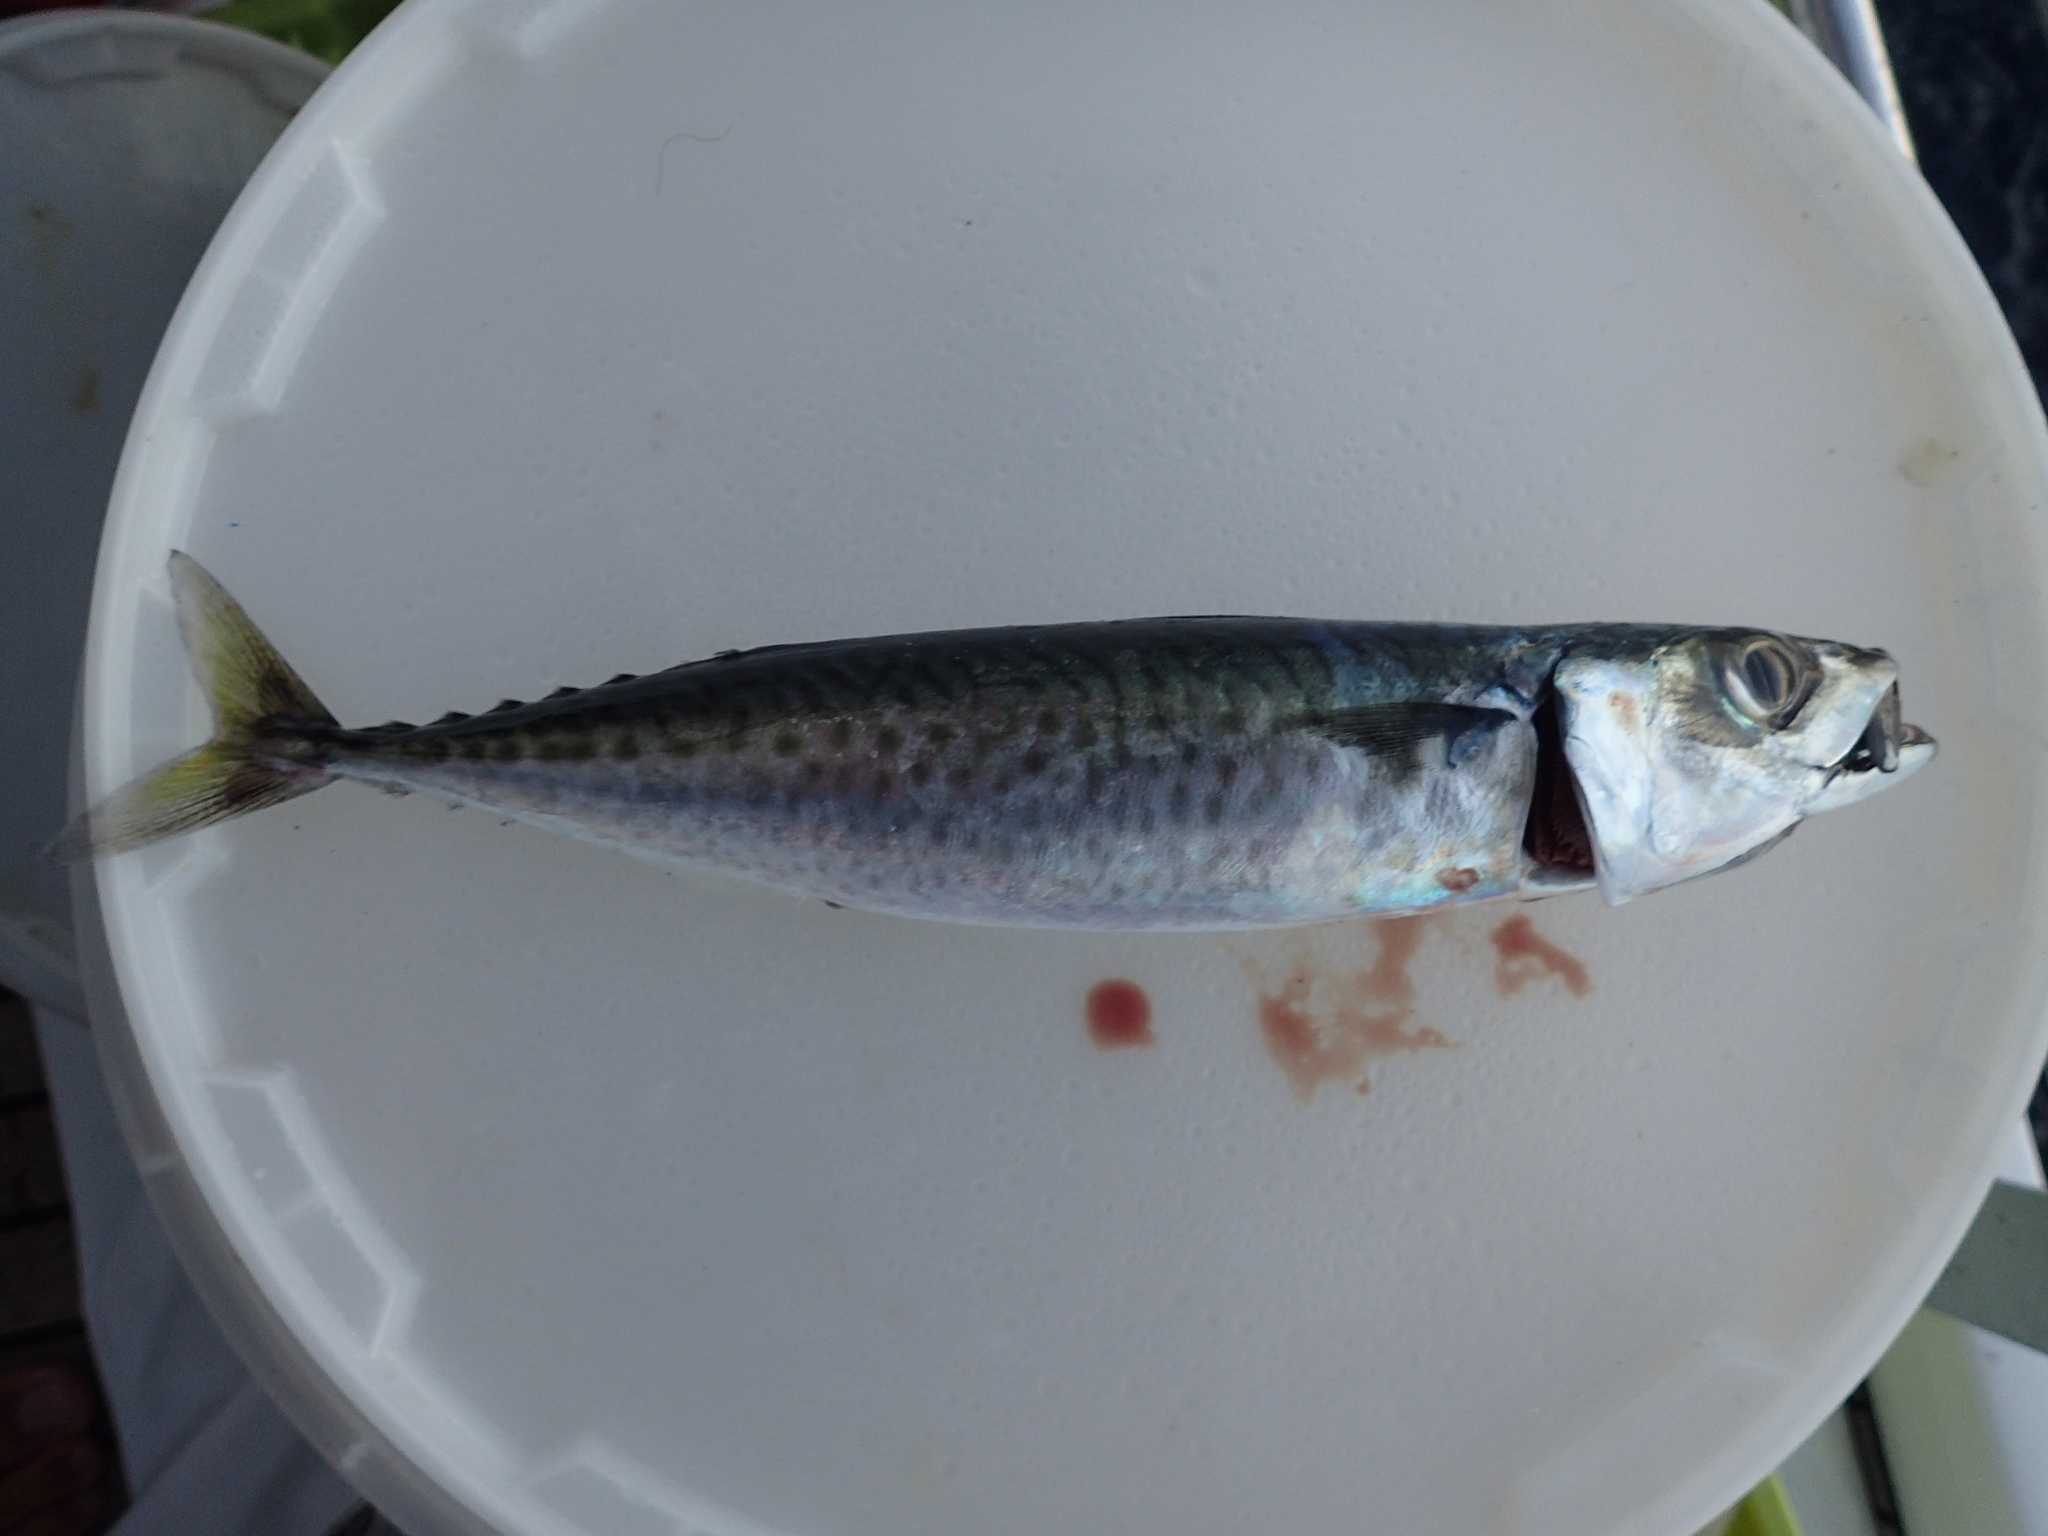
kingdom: Animalia
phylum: Chordata
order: Perciformes
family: Scombridae
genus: Scomber
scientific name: Scomber colias
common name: Atlantic chub mackerel
